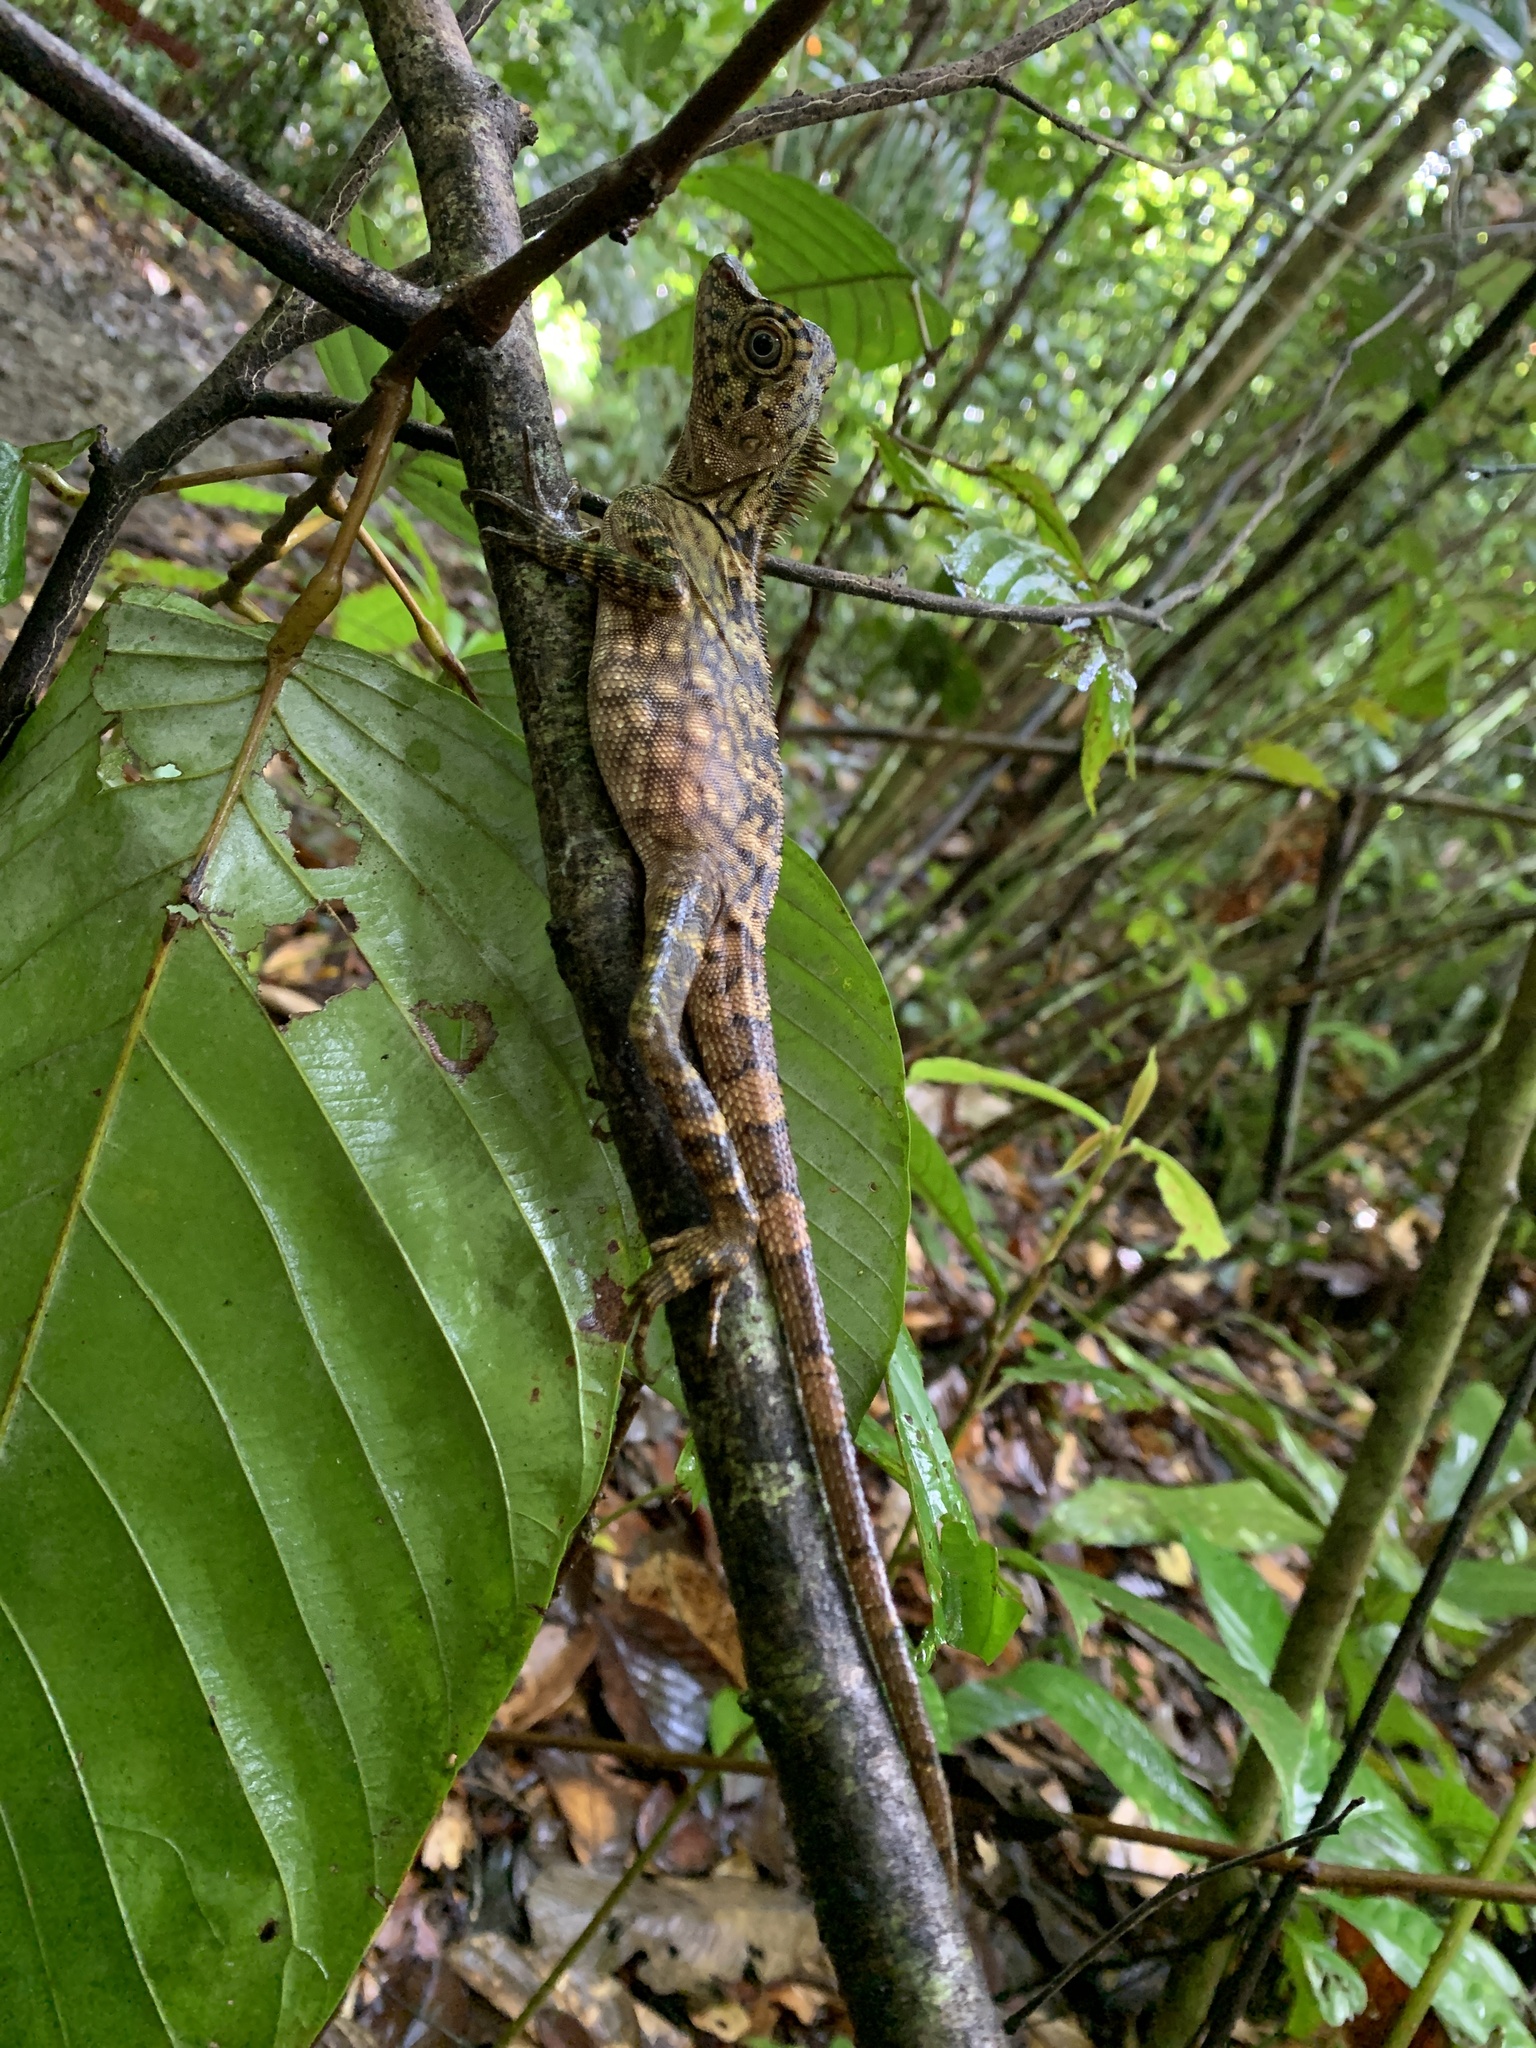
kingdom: Animalia
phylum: Chordata
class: Squamata
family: Agamidae
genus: Gonocephalus
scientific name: Gonocephalus bornensis
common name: Borneo forest dragon
